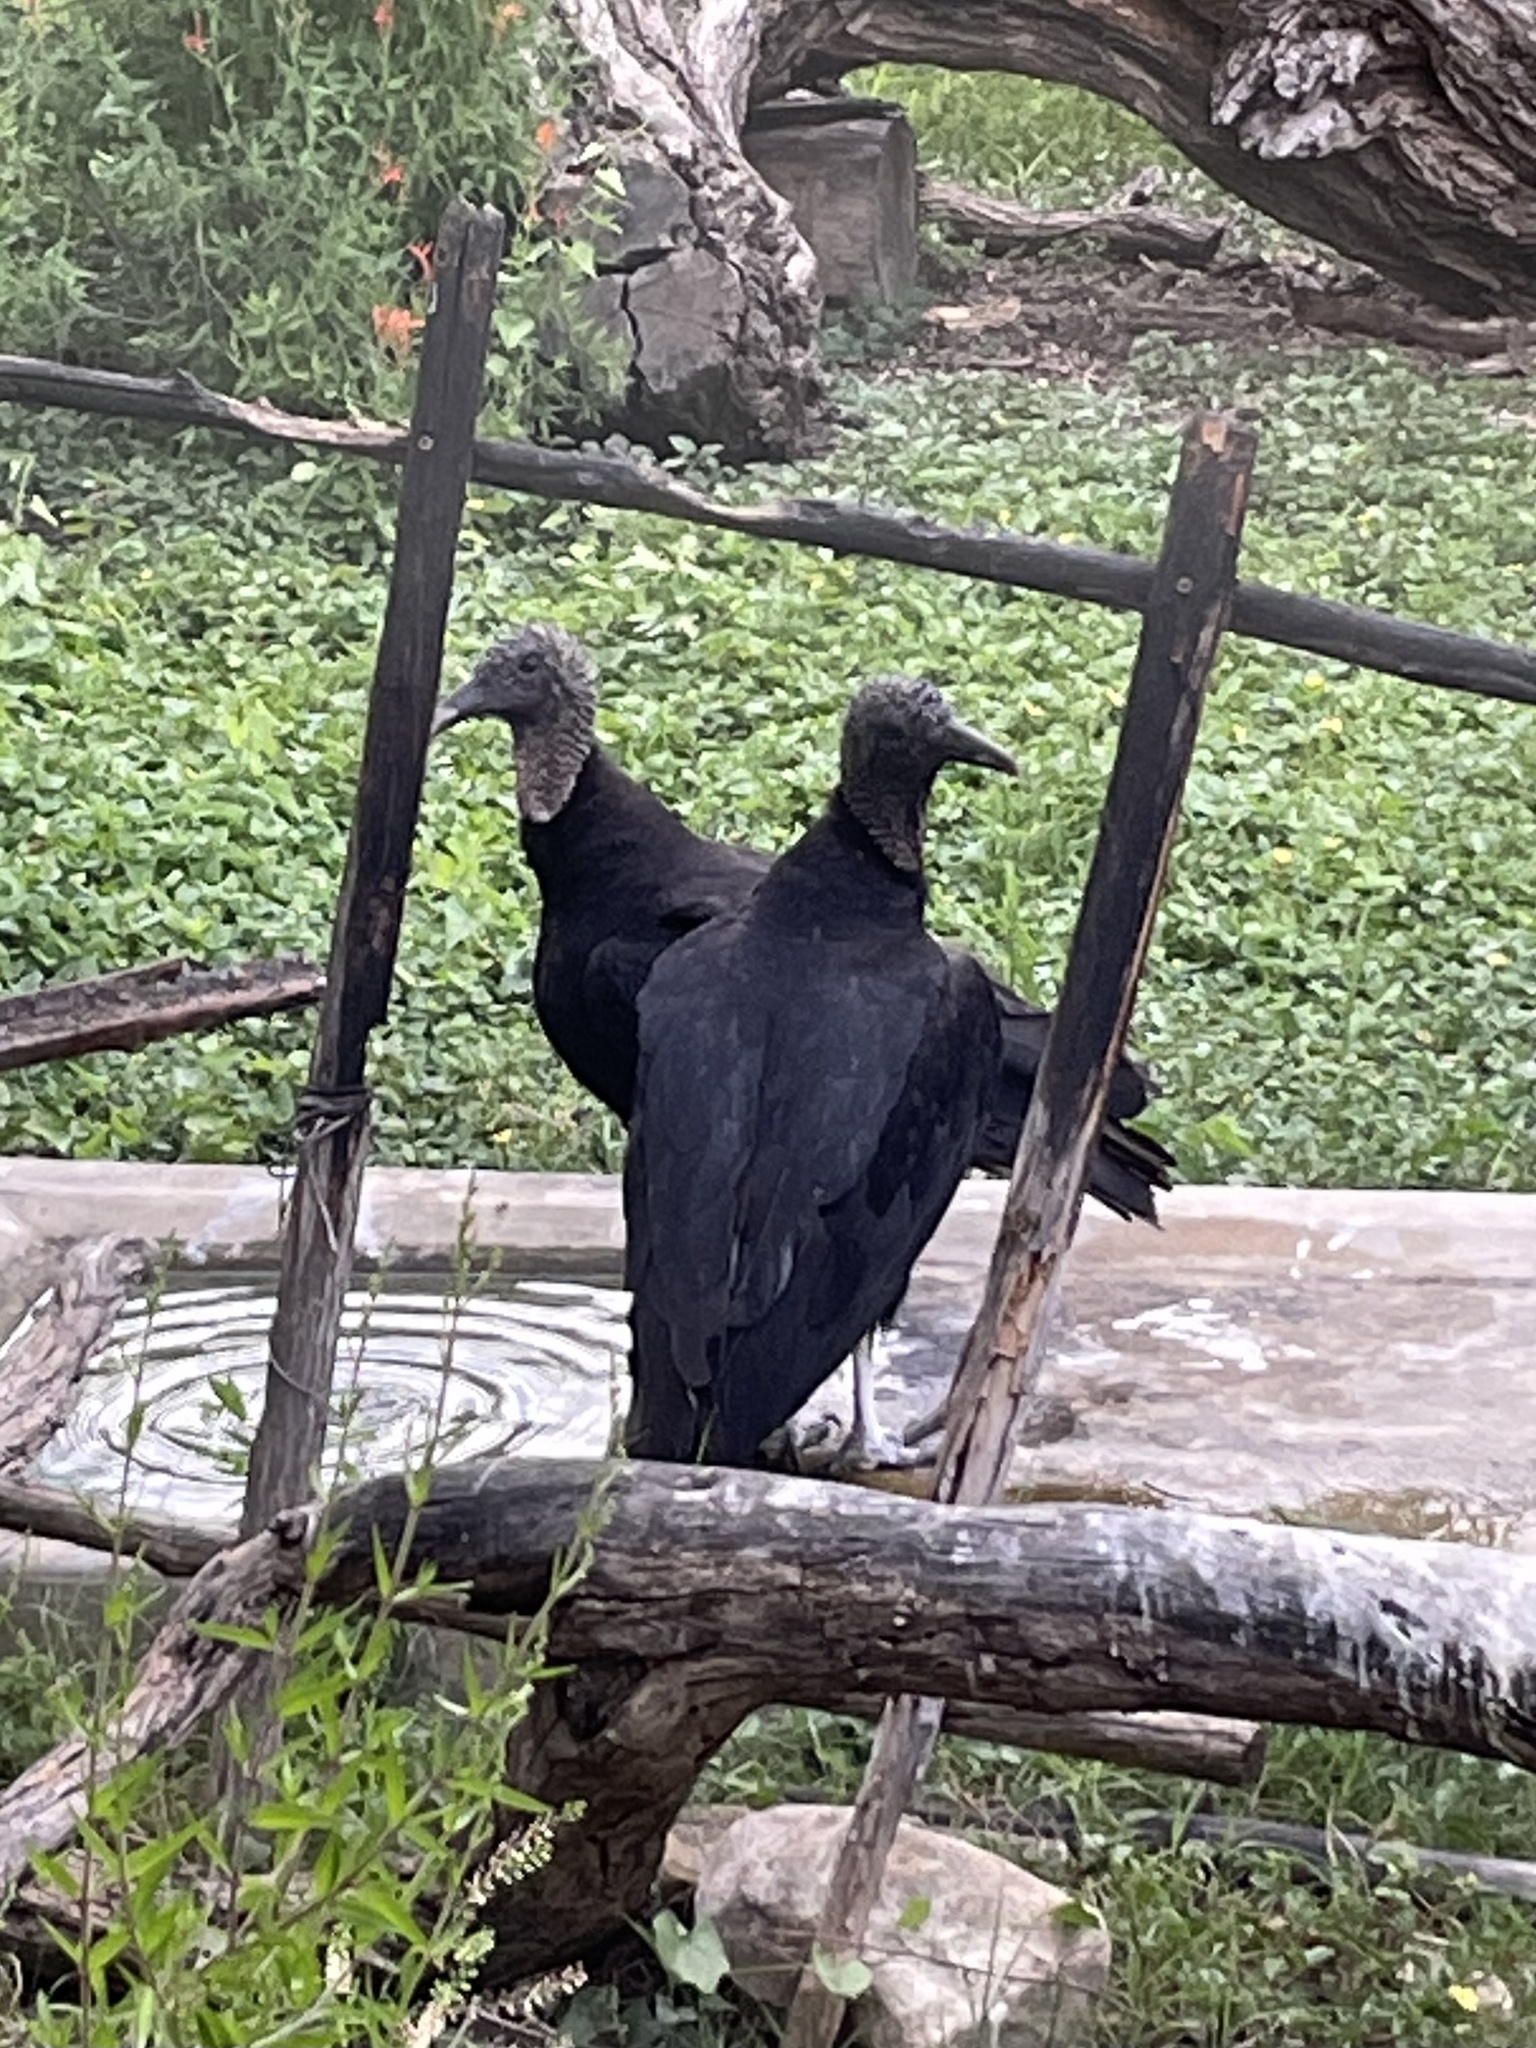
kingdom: Animalia
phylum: Chordata
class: Aves
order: Accipitriformes
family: Cathartidae
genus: Coragyps
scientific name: Coragyps atratus
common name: Black vulture
